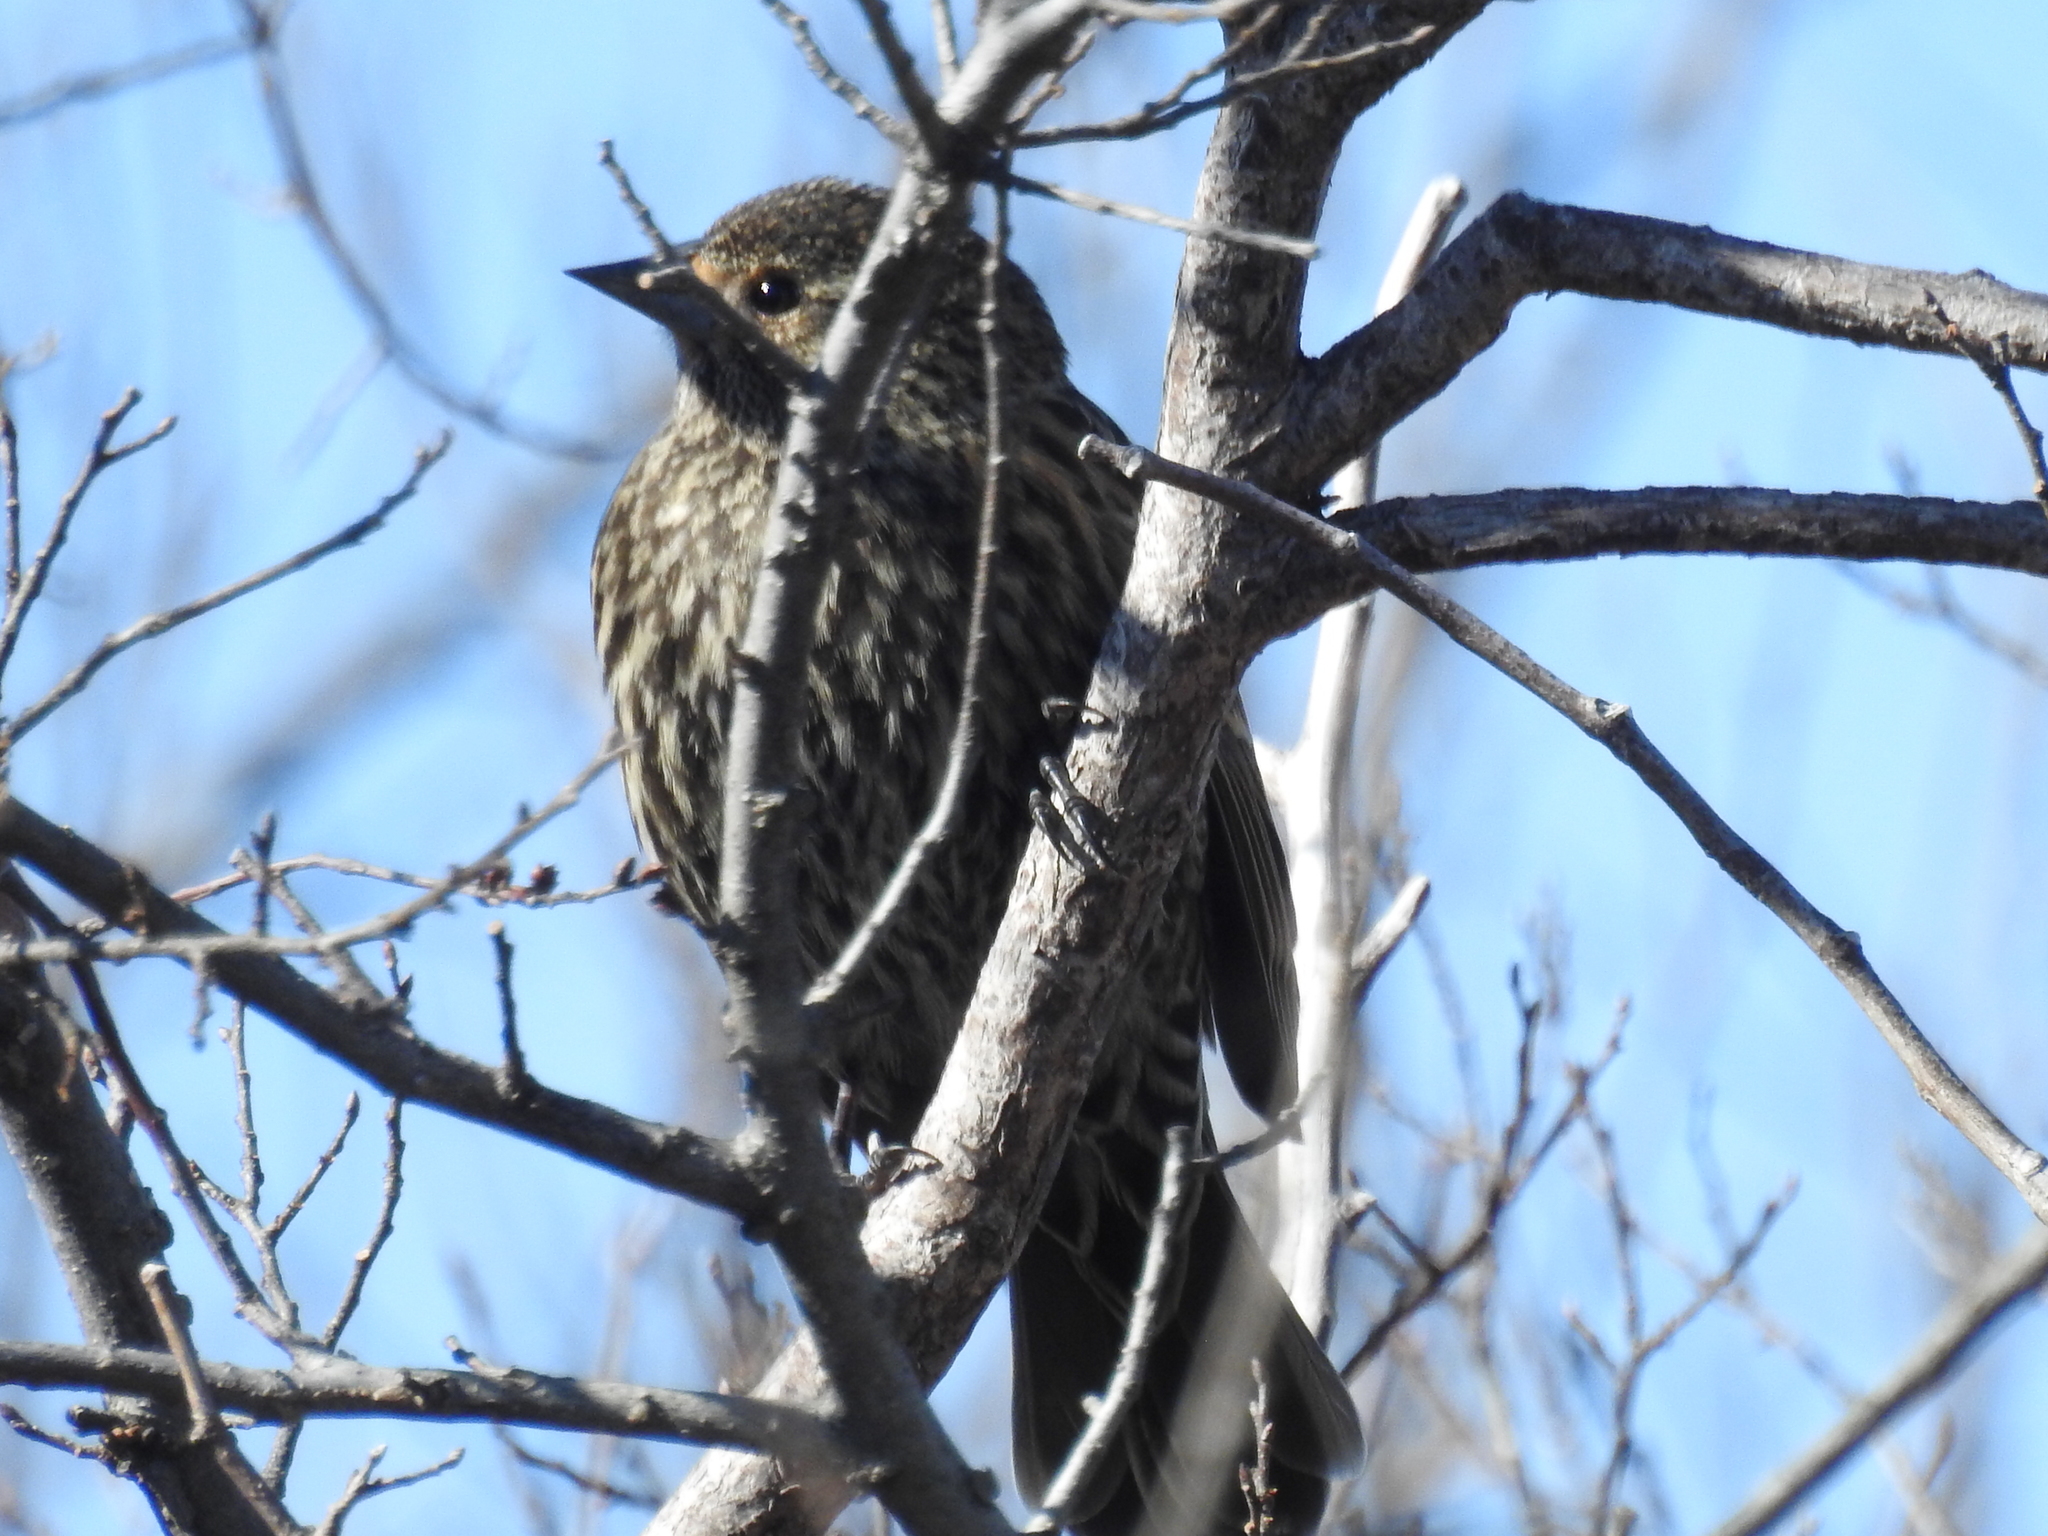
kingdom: Animalia
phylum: Chordata
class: Aves
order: Passeriformes
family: Icteridae
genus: Agelaius
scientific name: Agelaius phoeniceus
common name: Red-winged blackbird
